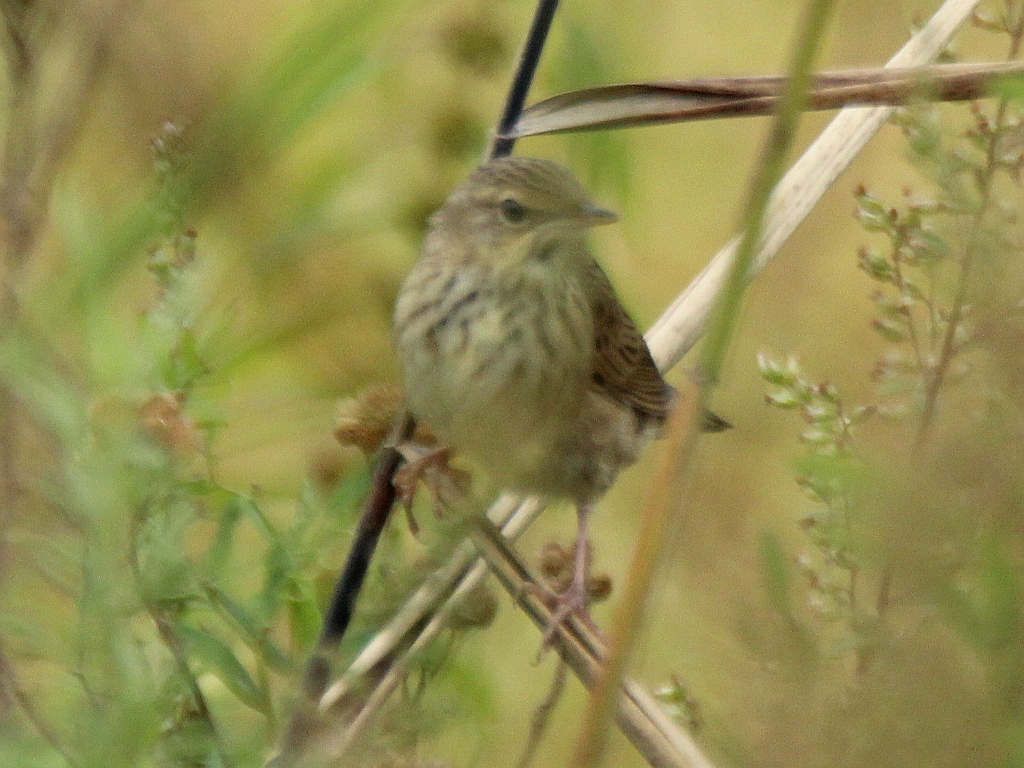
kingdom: Animalia
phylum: Chordata
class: Aves
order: Passeriformes
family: Locustellidae
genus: Locustella
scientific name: Locustella lanceolata
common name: Lanceolated warbler
